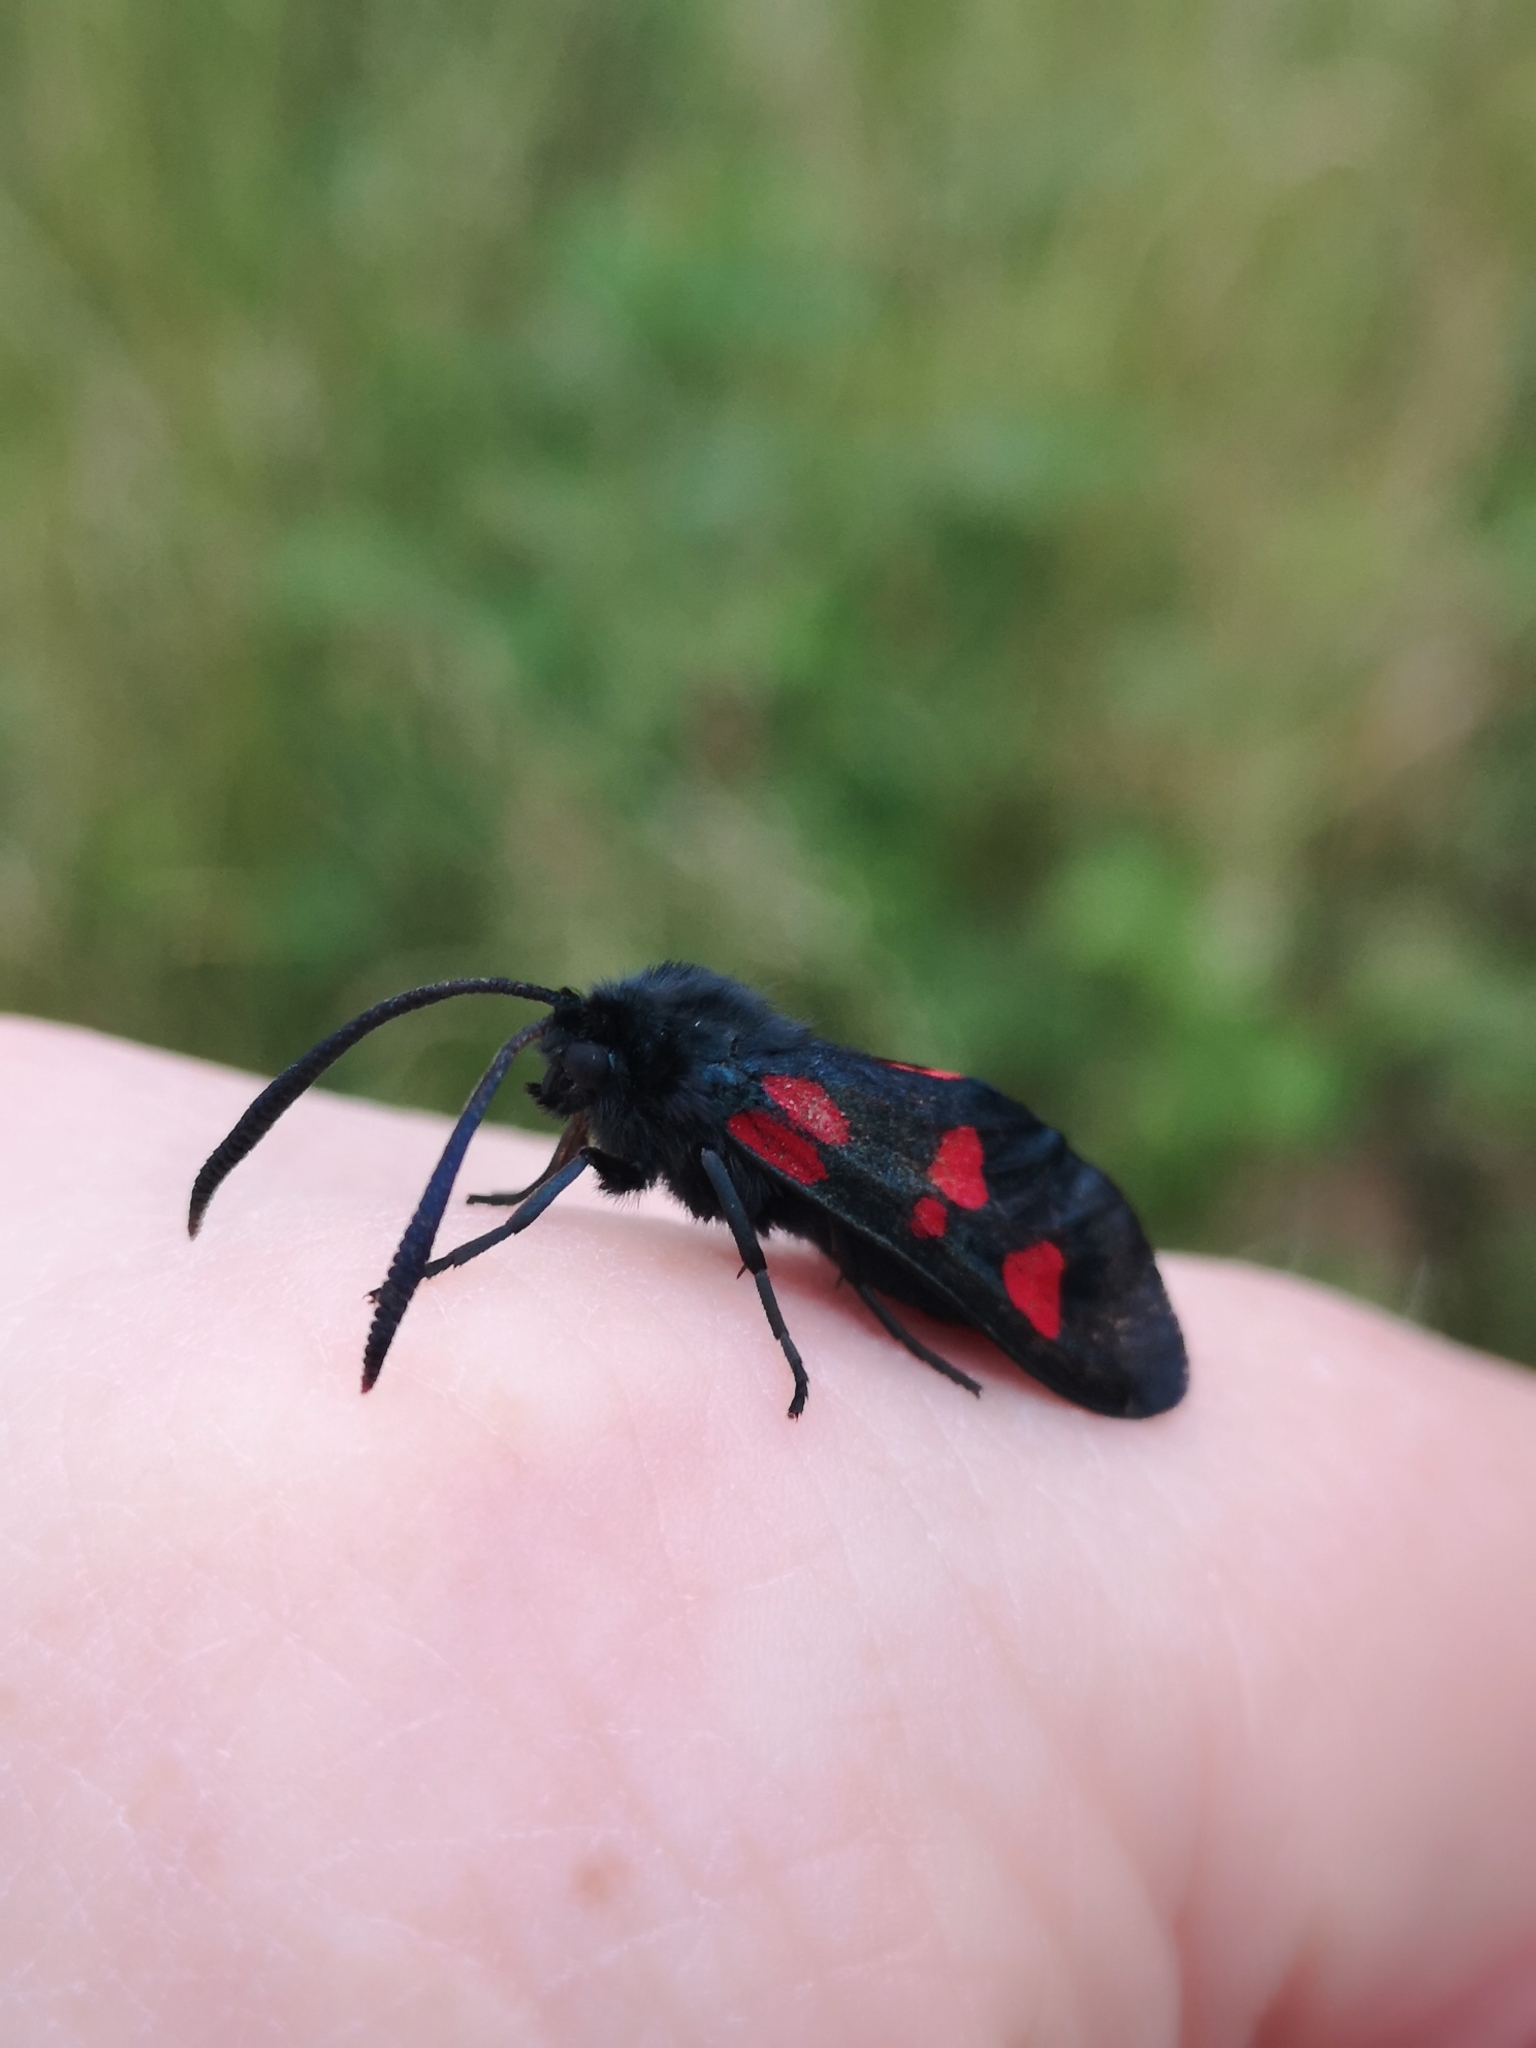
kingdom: Animalia
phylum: Arthropoda
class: Insecta
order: Lepidoptera
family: Zygaenidae
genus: Zygaena
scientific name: Zygaena lonicerae
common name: Narrow-bordered five-spot burnet
